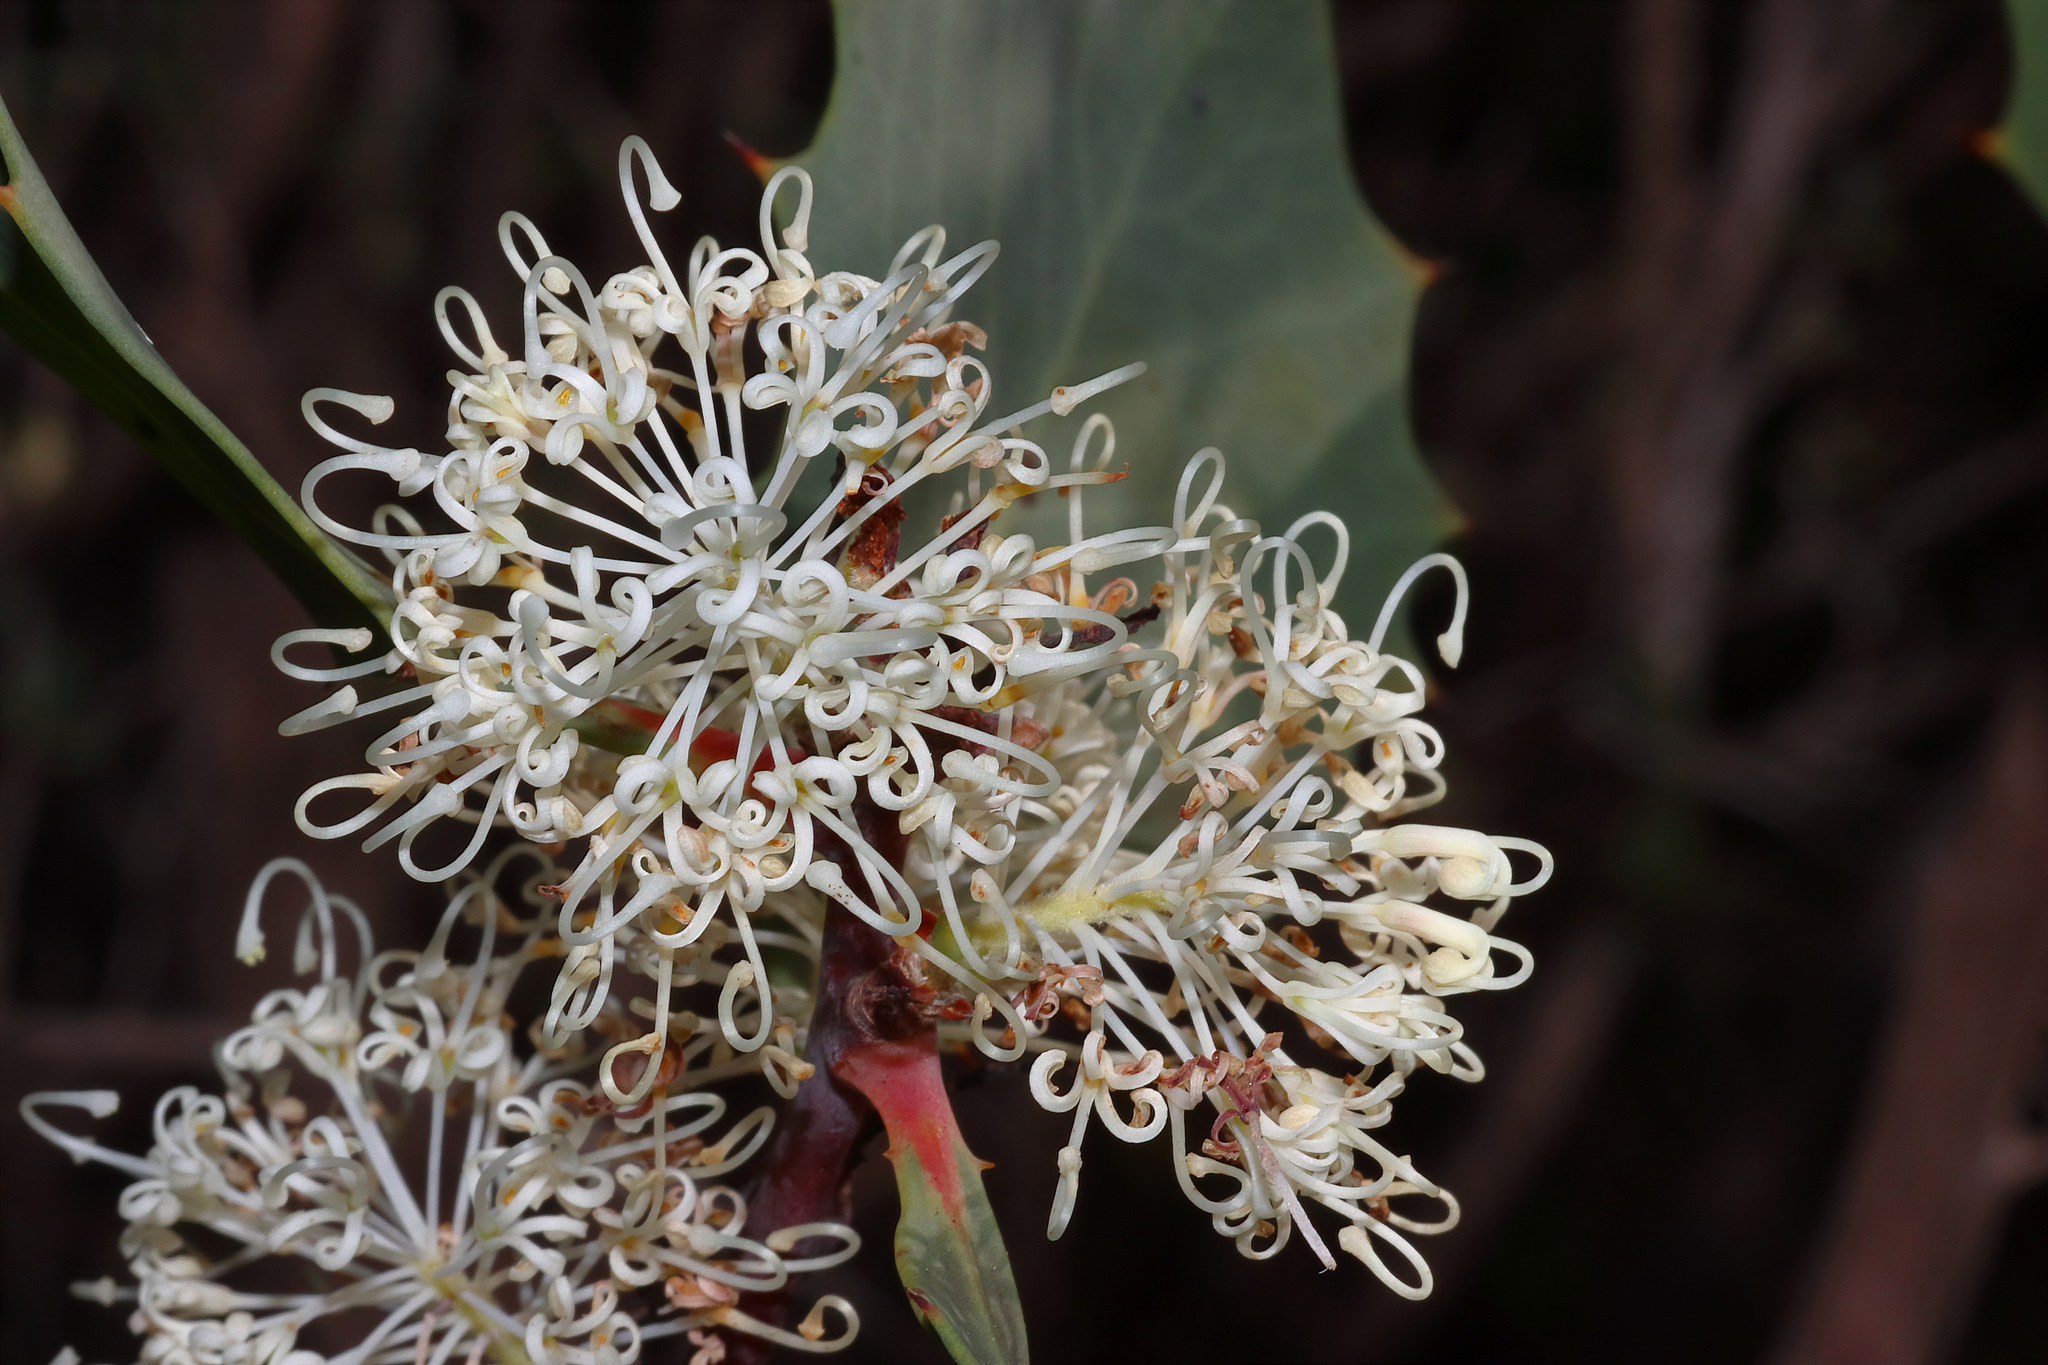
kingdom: Plantae
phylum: Tracheophyta
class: Magnoliopsida
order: Proteales
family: Proteaceae
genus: Hakea
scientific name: Hakea cristata
